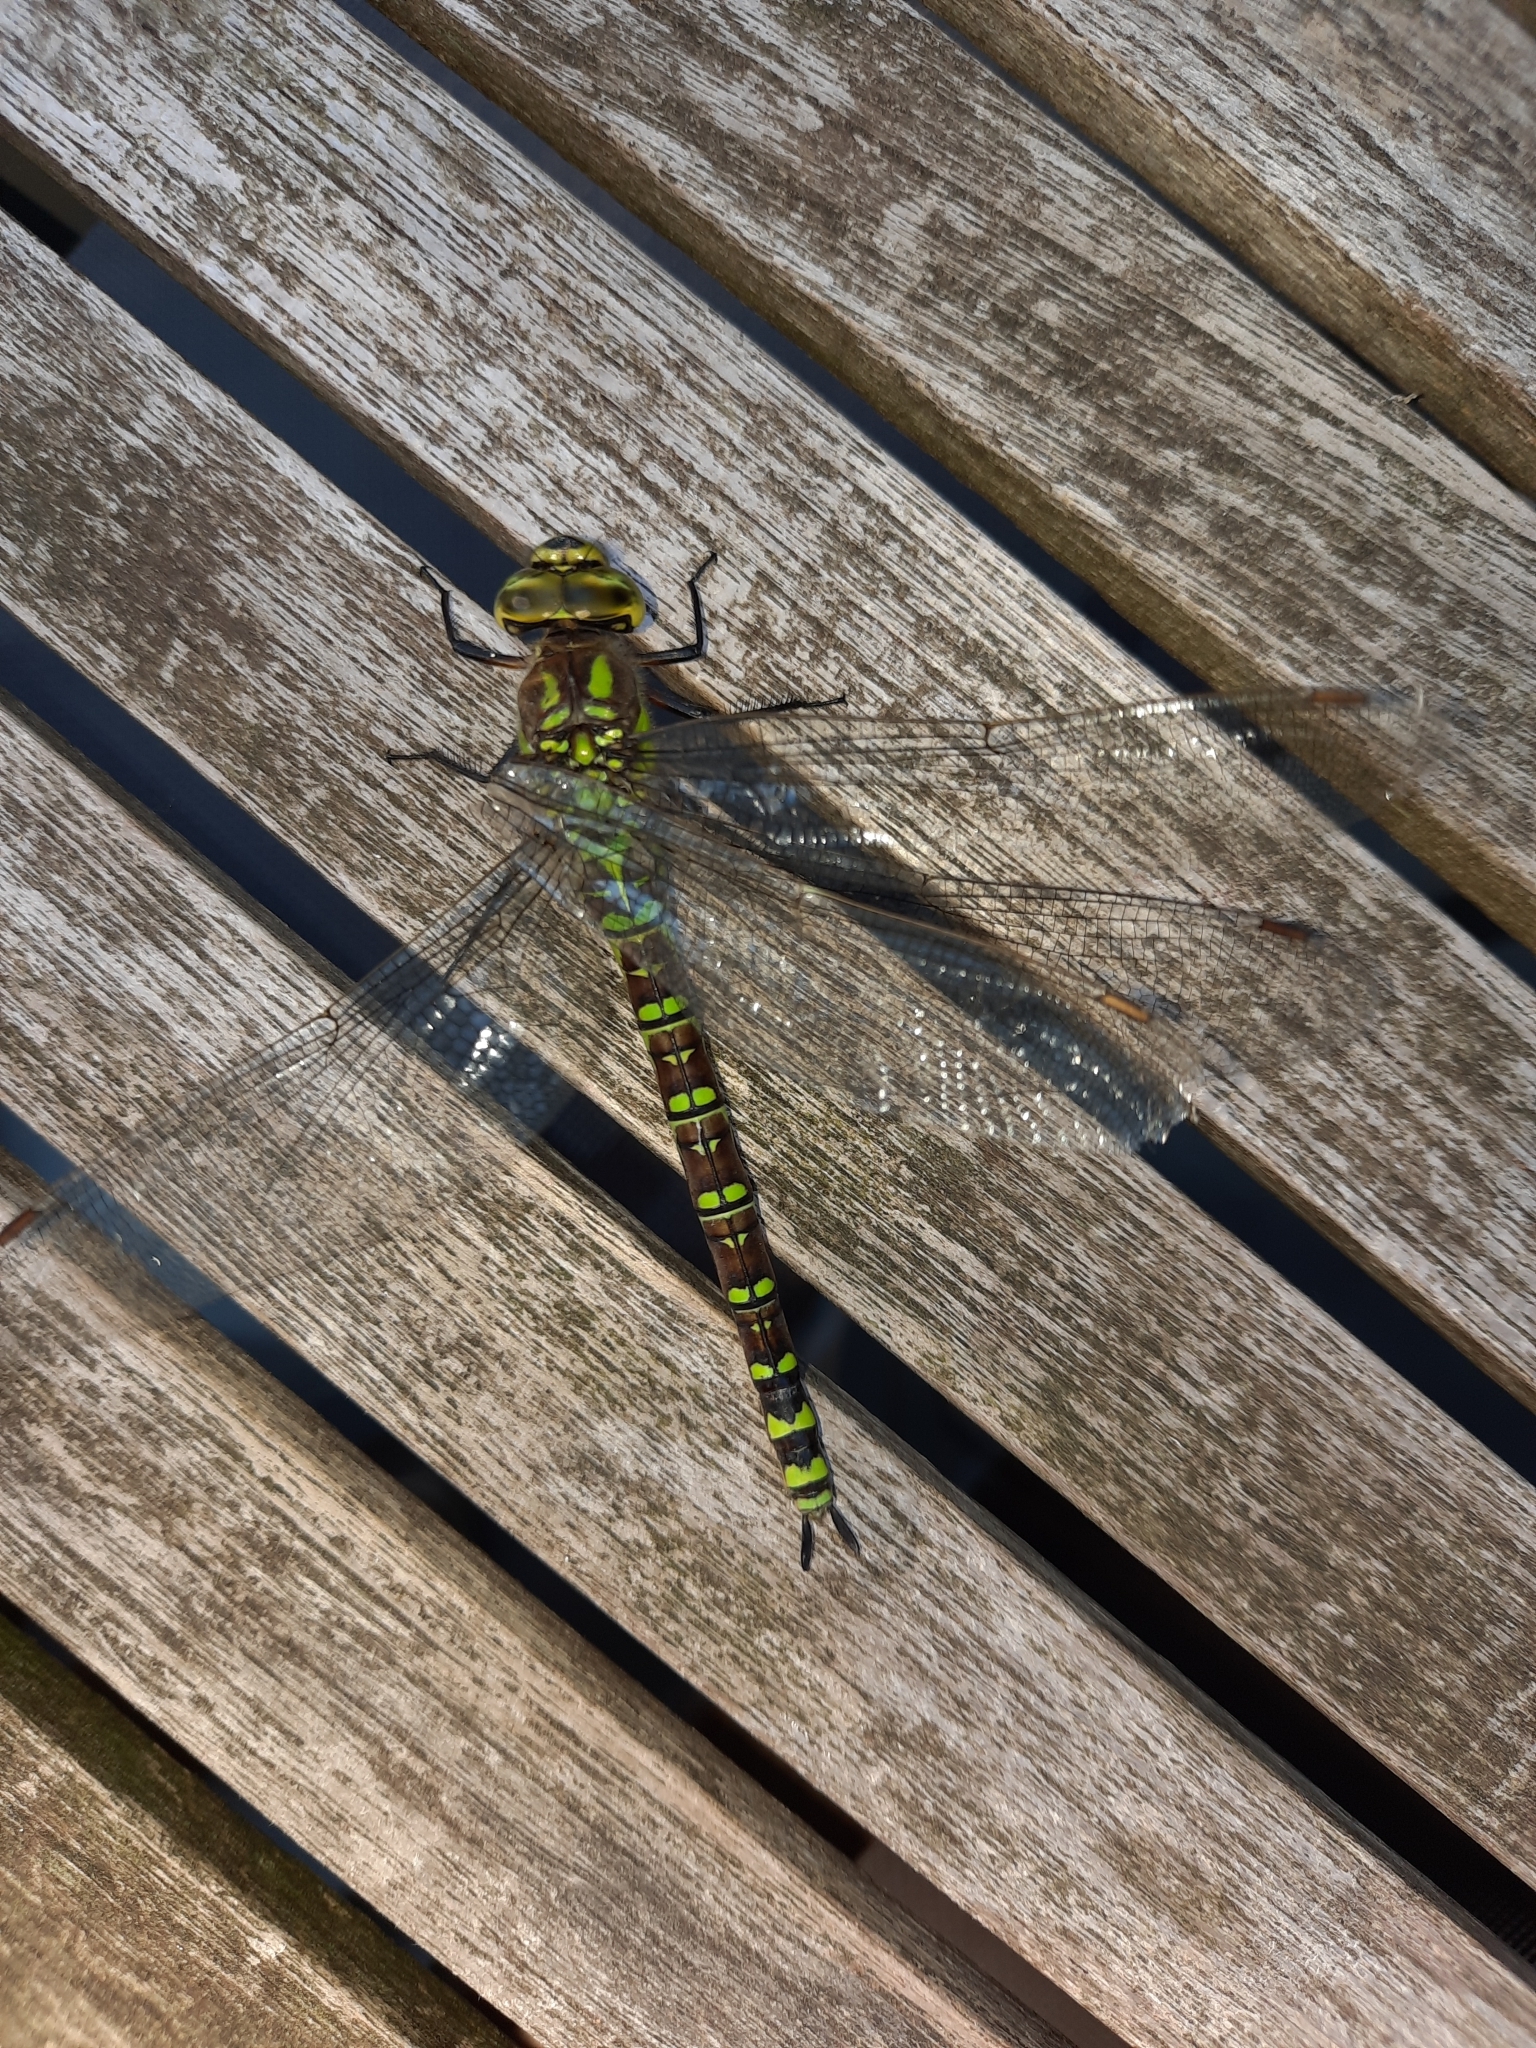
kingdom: Animalia
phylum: Arthropoda
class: Insecta
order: Odonata
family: Aeshnidae
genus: Aeshna
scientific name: Aeshna cyanea
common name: Southern hawker
